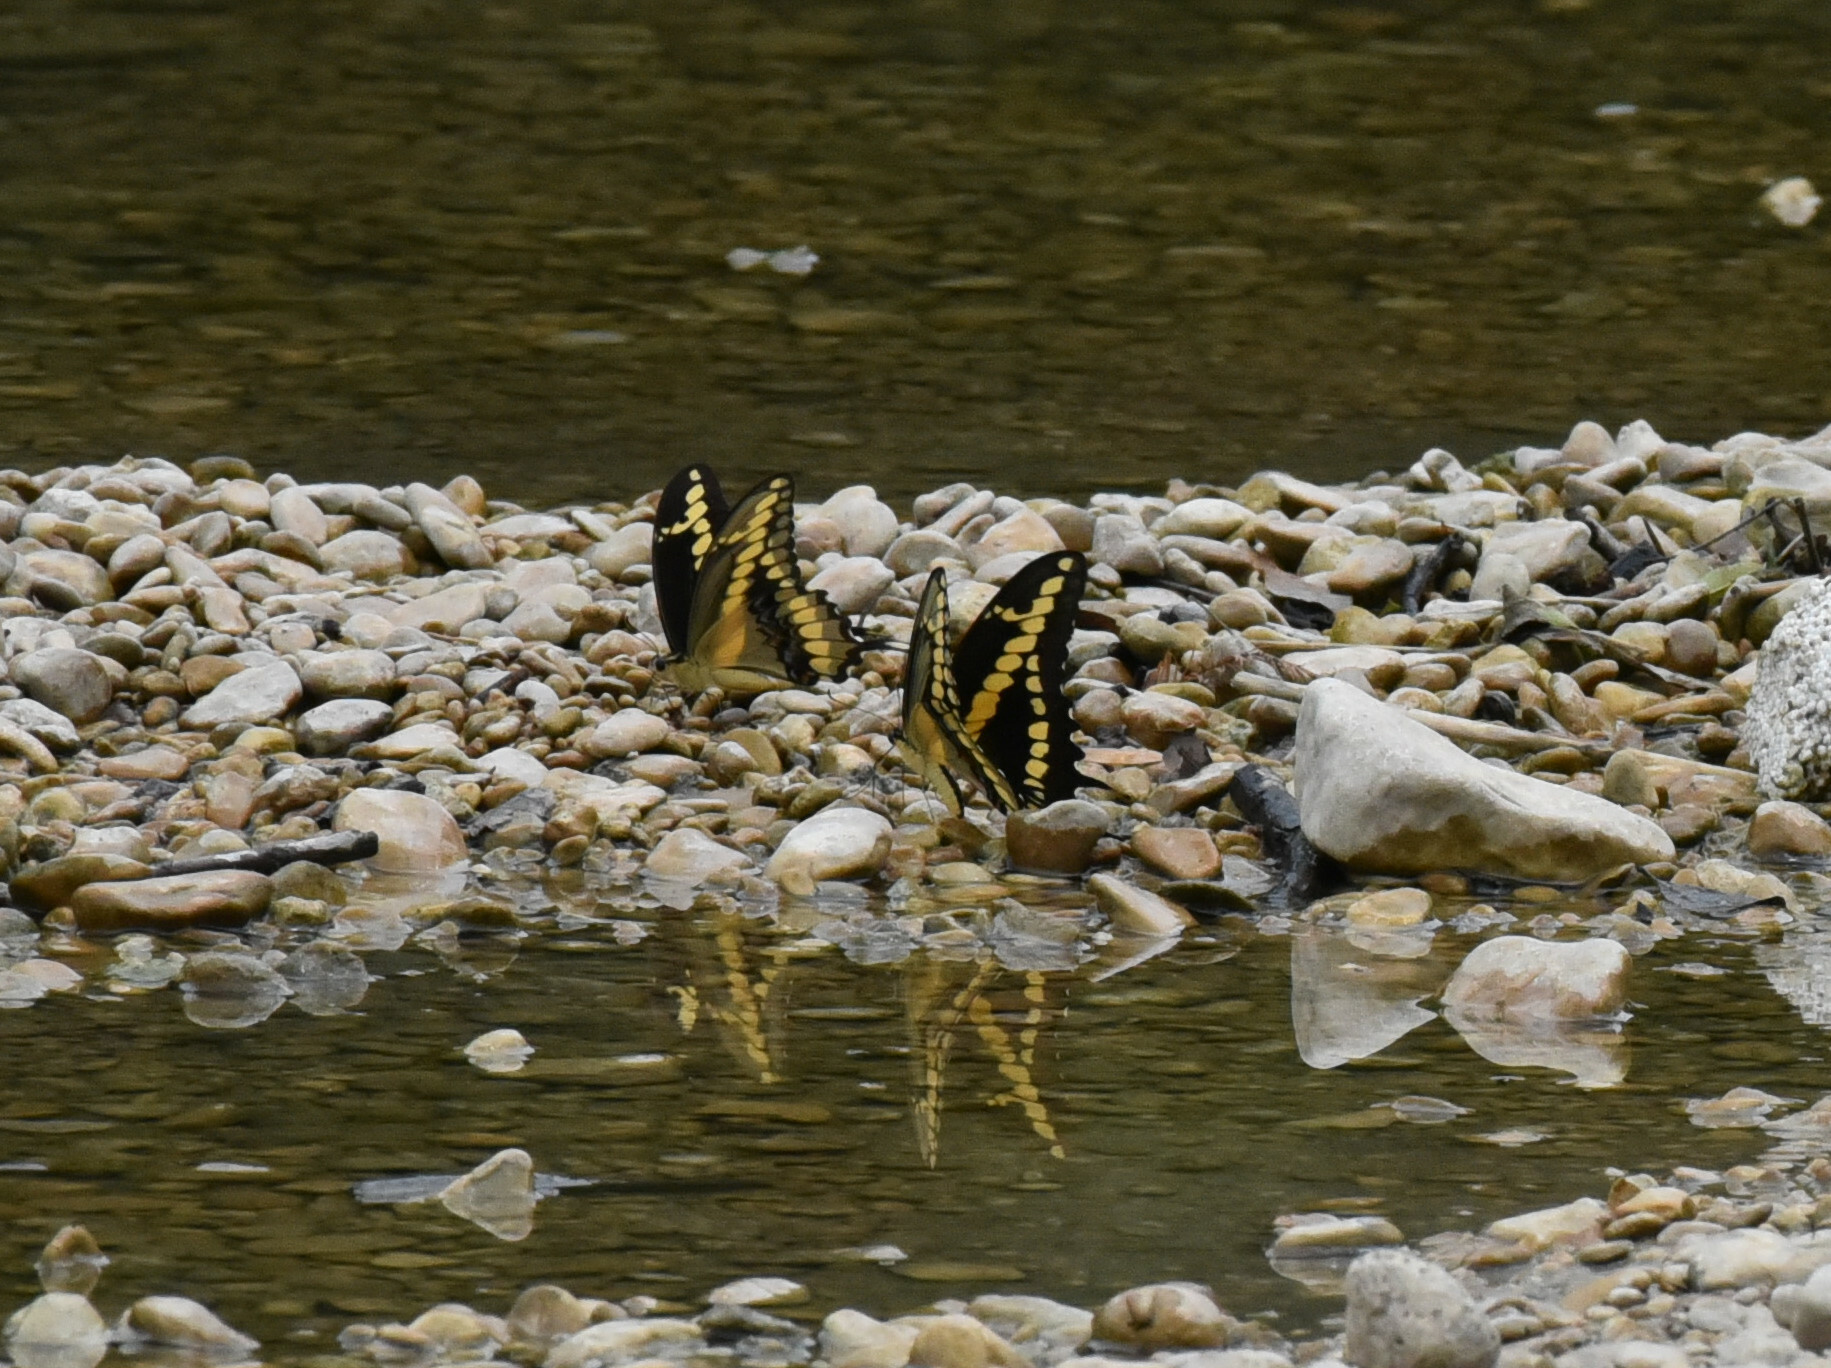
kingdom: Animalia
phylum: Arthropoda
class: Insecta
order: Lepidoptera
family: Papilionidae
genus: Papilio
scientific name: Papilio rumiko
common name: Western giant swallowtail
